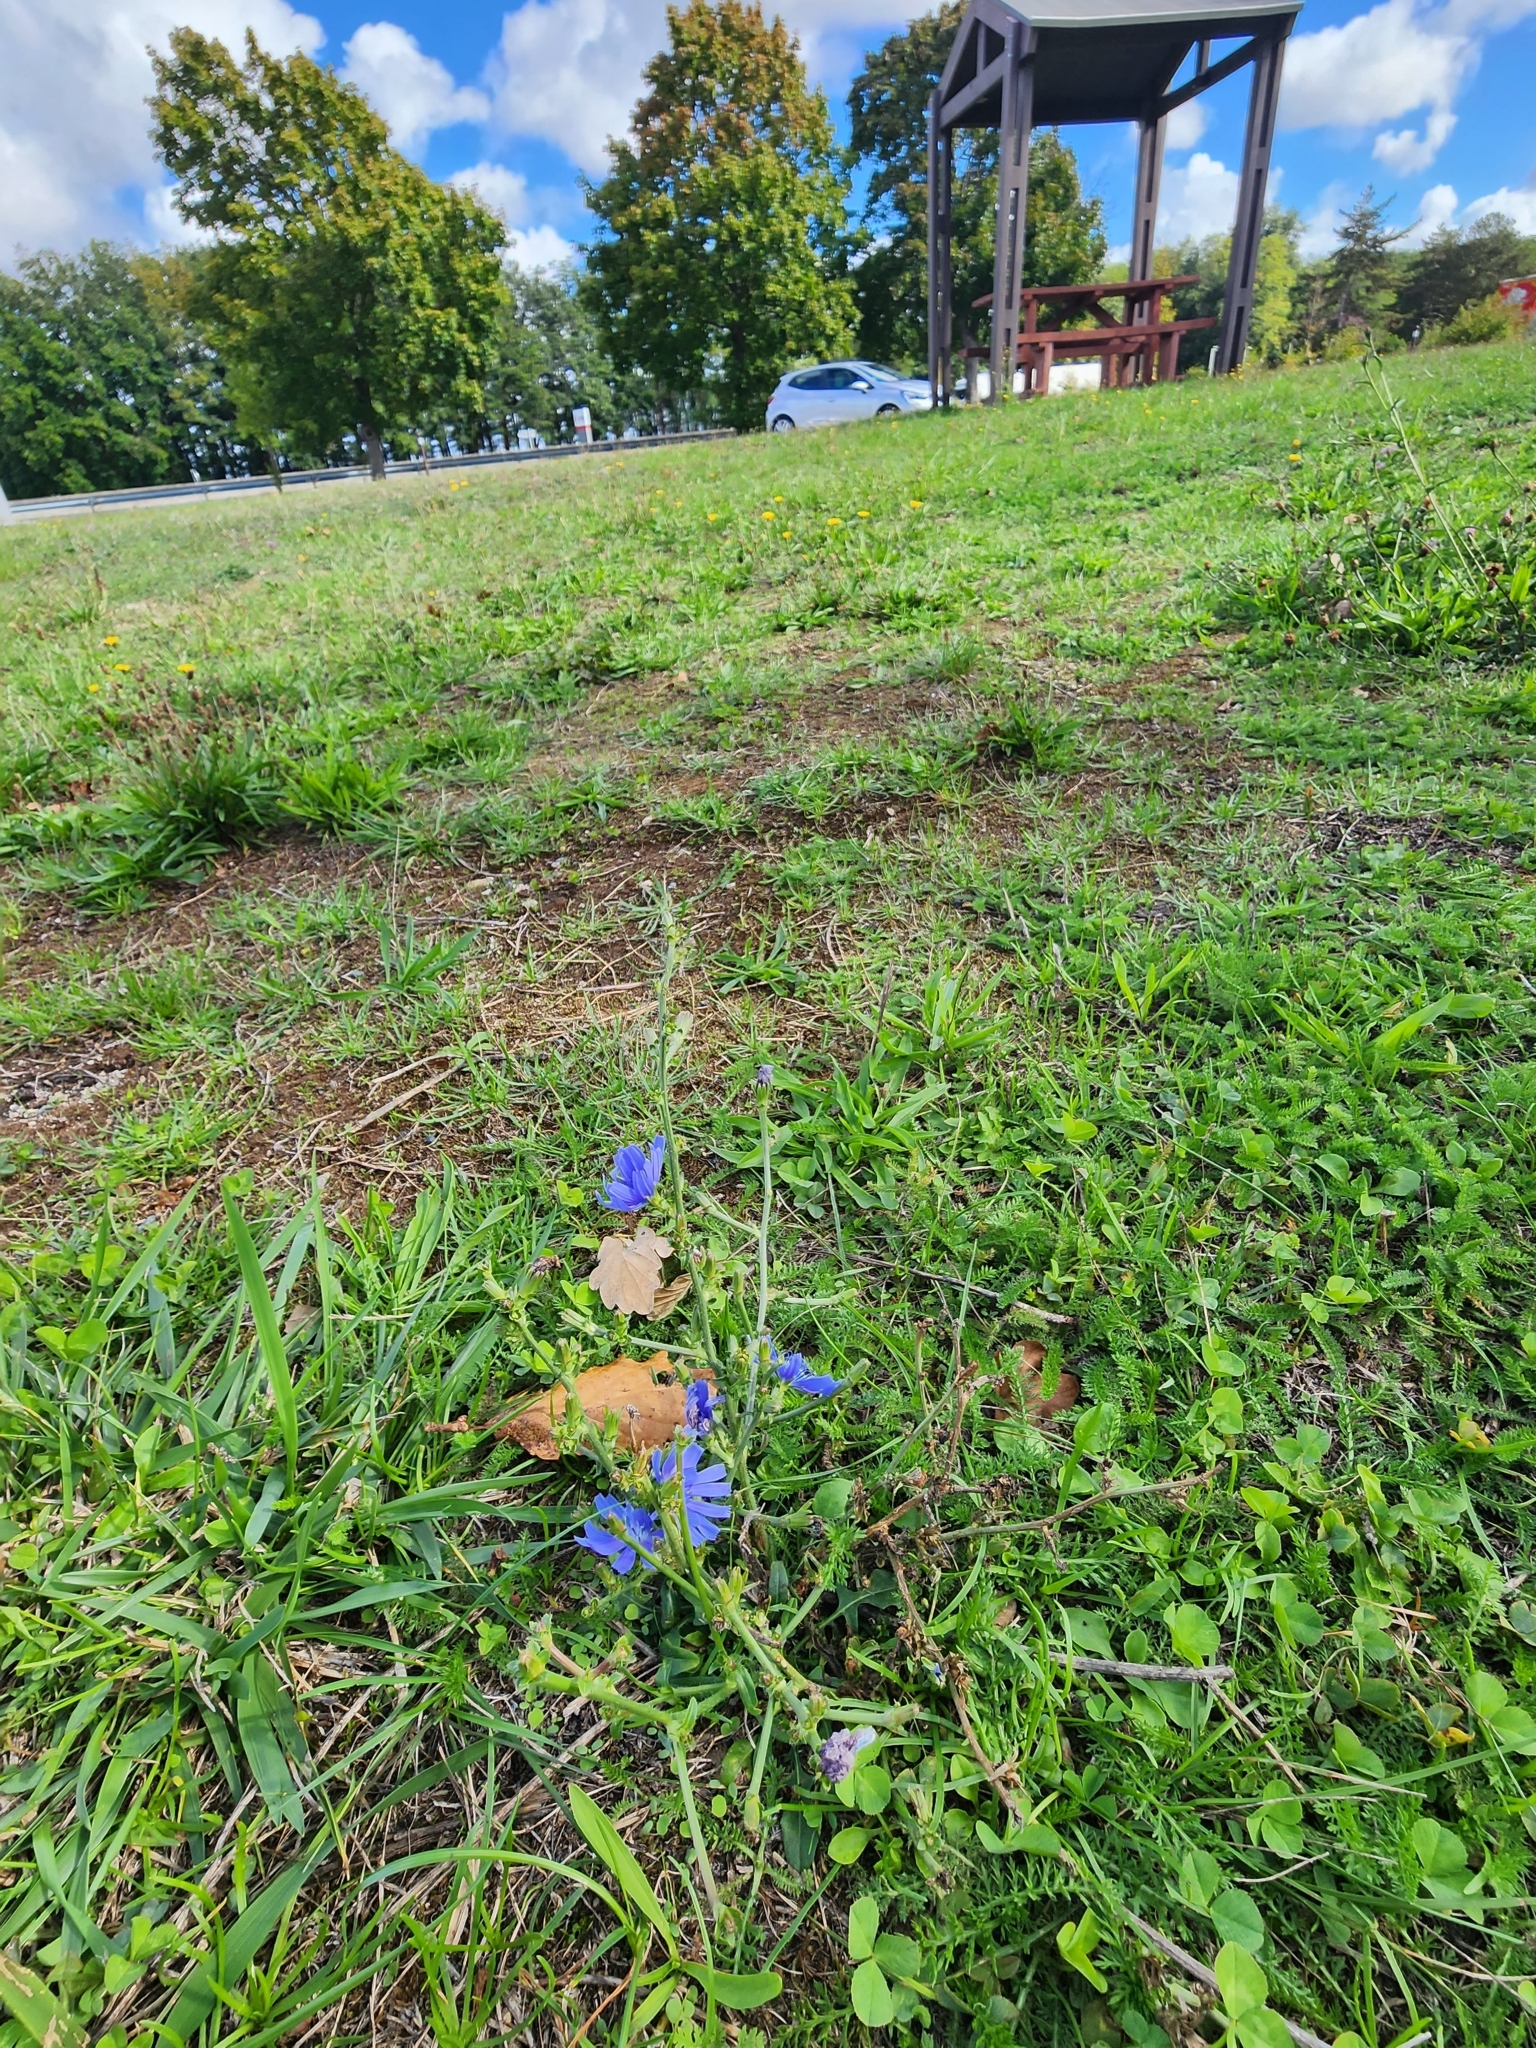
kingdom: Plantae
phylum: Tracheophyta
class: Magnoliopsida
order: Asterales
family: Asteraceae
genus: Cichorium
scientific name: Cichorium intybus
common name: Chicory
